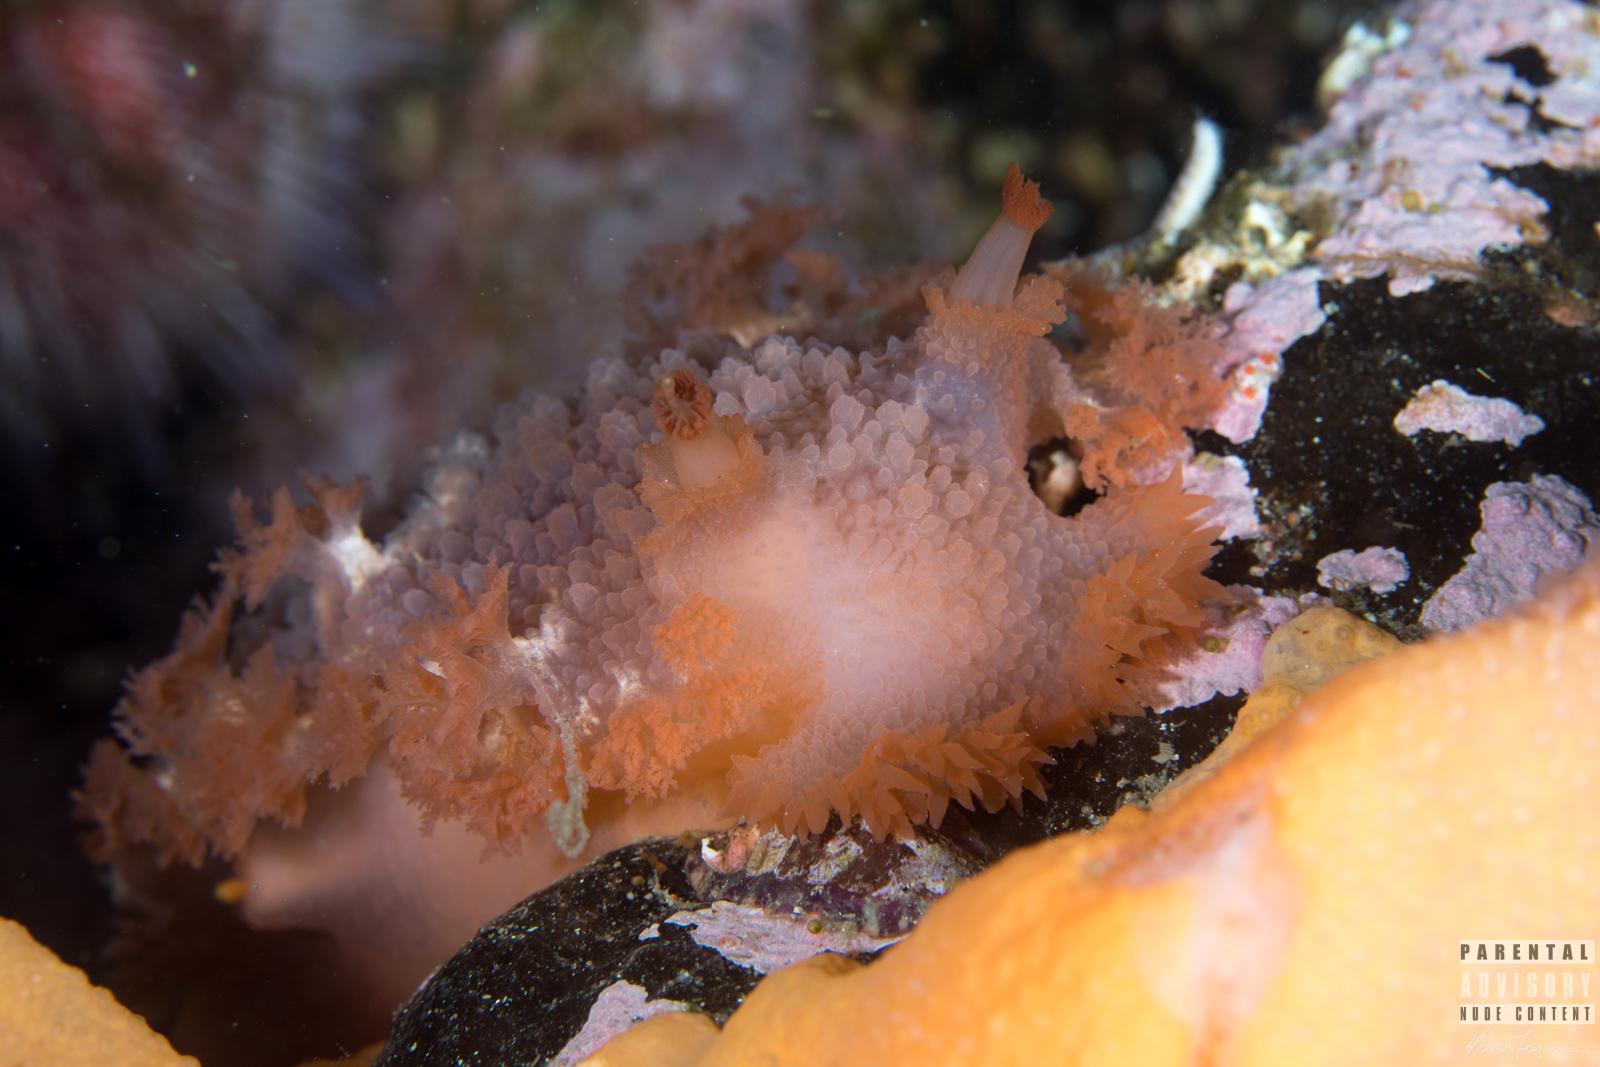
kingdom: Animalia
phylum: Mollusca
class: Gastropoda
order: Nudibranchia
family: Tritoniidae
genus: Tritonia
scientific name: Tritonia hombergii
